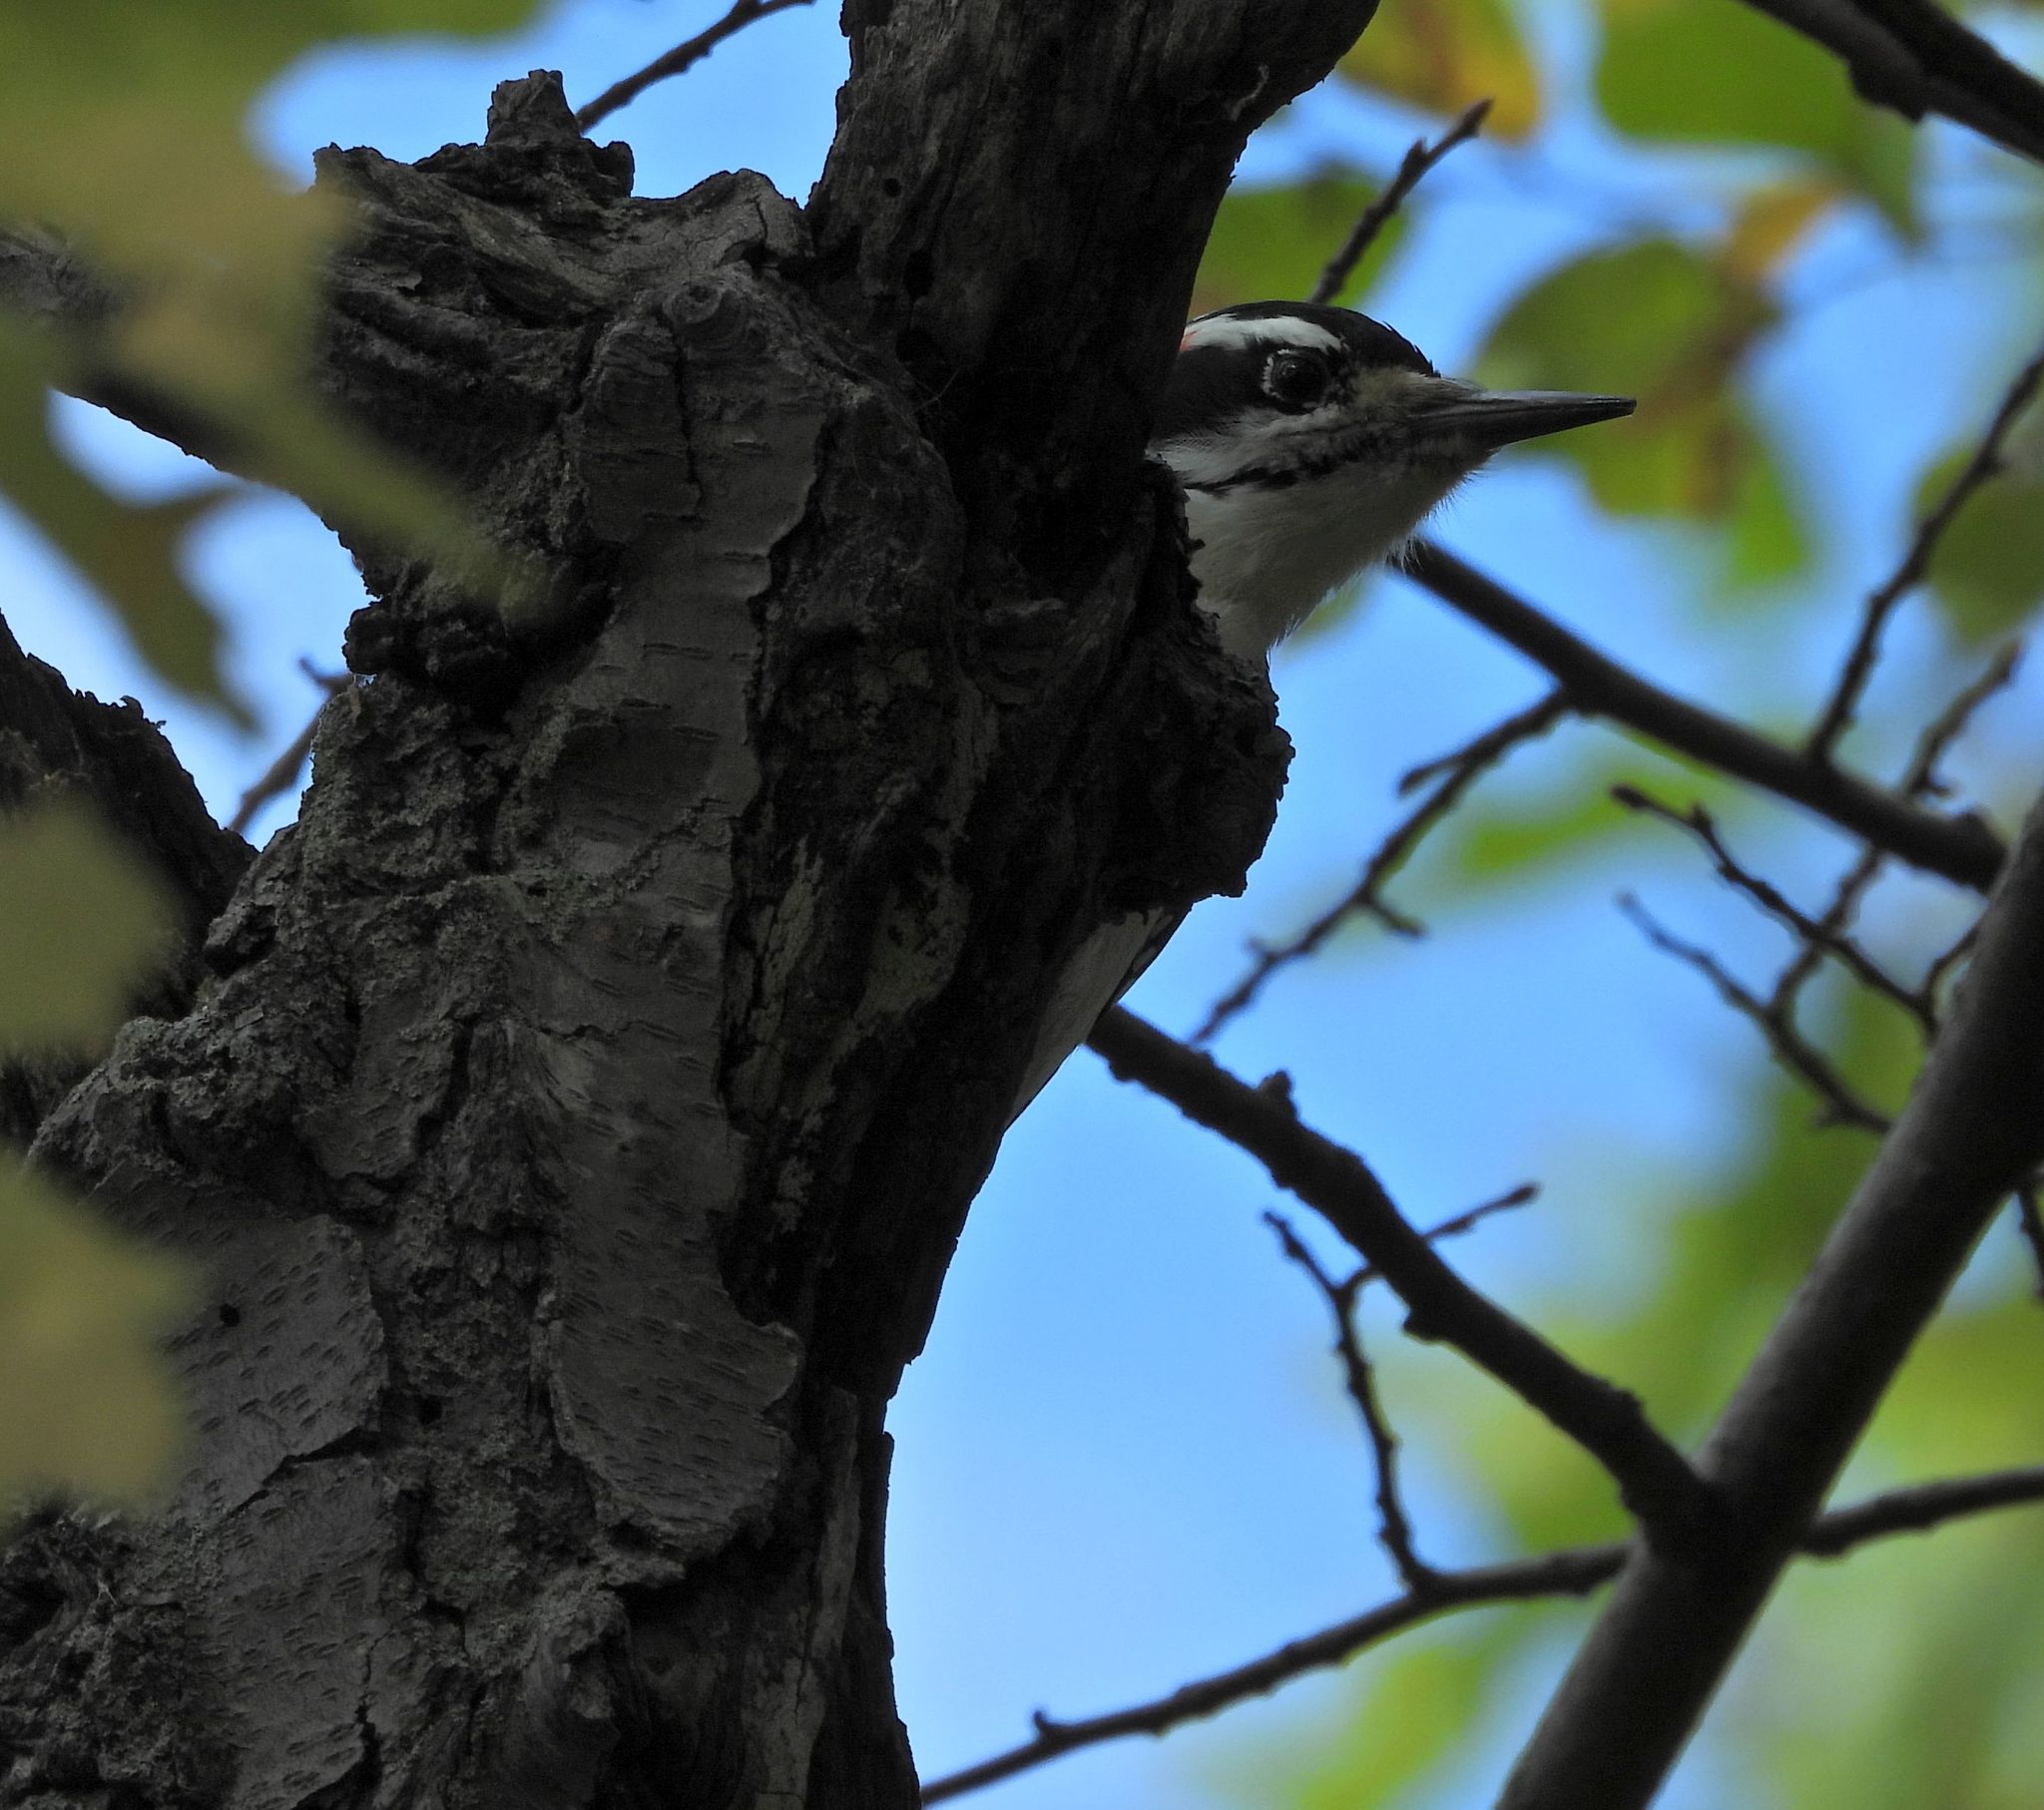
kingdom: Animalia
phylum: Chordata
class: Aves
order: Piciformes
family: Picidae
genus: Leuconotopicus
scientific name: Leuconotopicus villosus
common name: Hairy woodpecker
